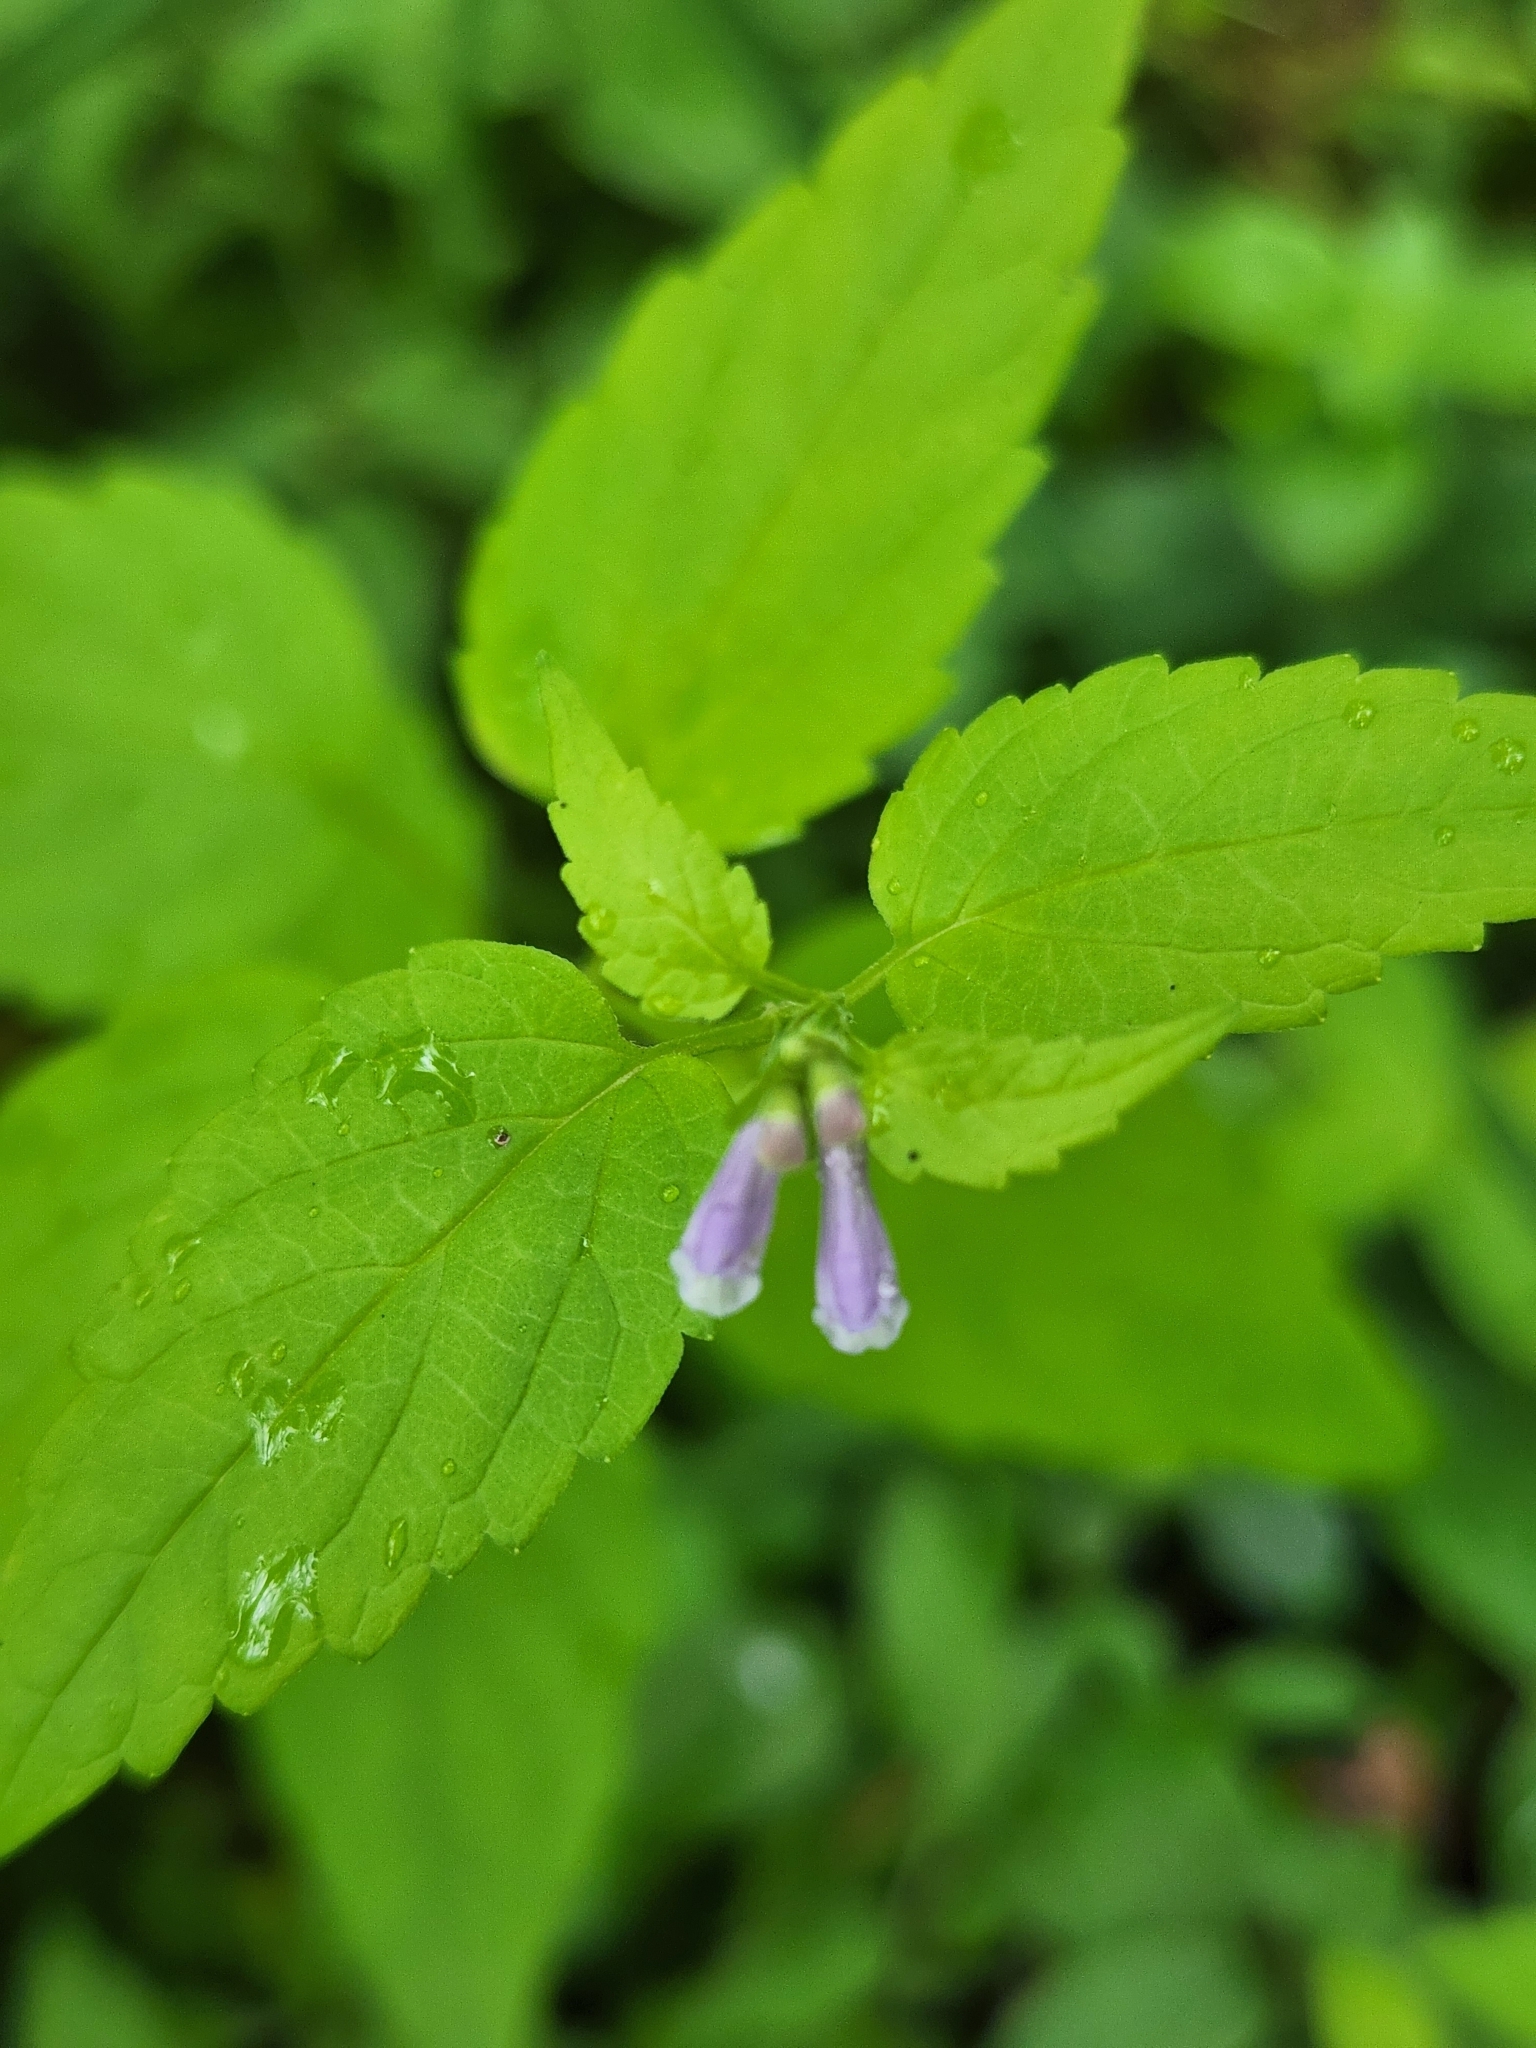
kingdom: Plantae
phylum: Tracheophyta
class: Magnoliopsida
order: Lamiales
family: Lamiaceae
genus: Scutellaria
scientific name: Scutellaria lateriflora
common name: Blue skullcap
